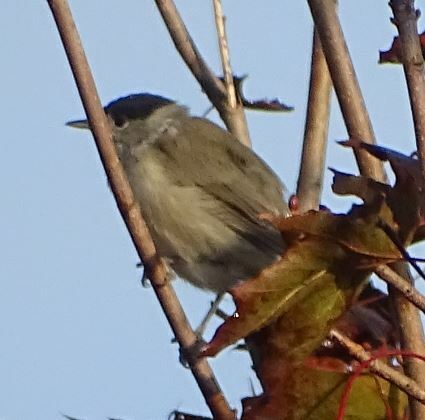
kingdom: Animalia
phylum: Chordata
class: Aves
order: Passeriformes
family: Sylviidae
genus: Sylvia
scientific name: Sylvia atricapilla
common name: Eurasian blackcap
